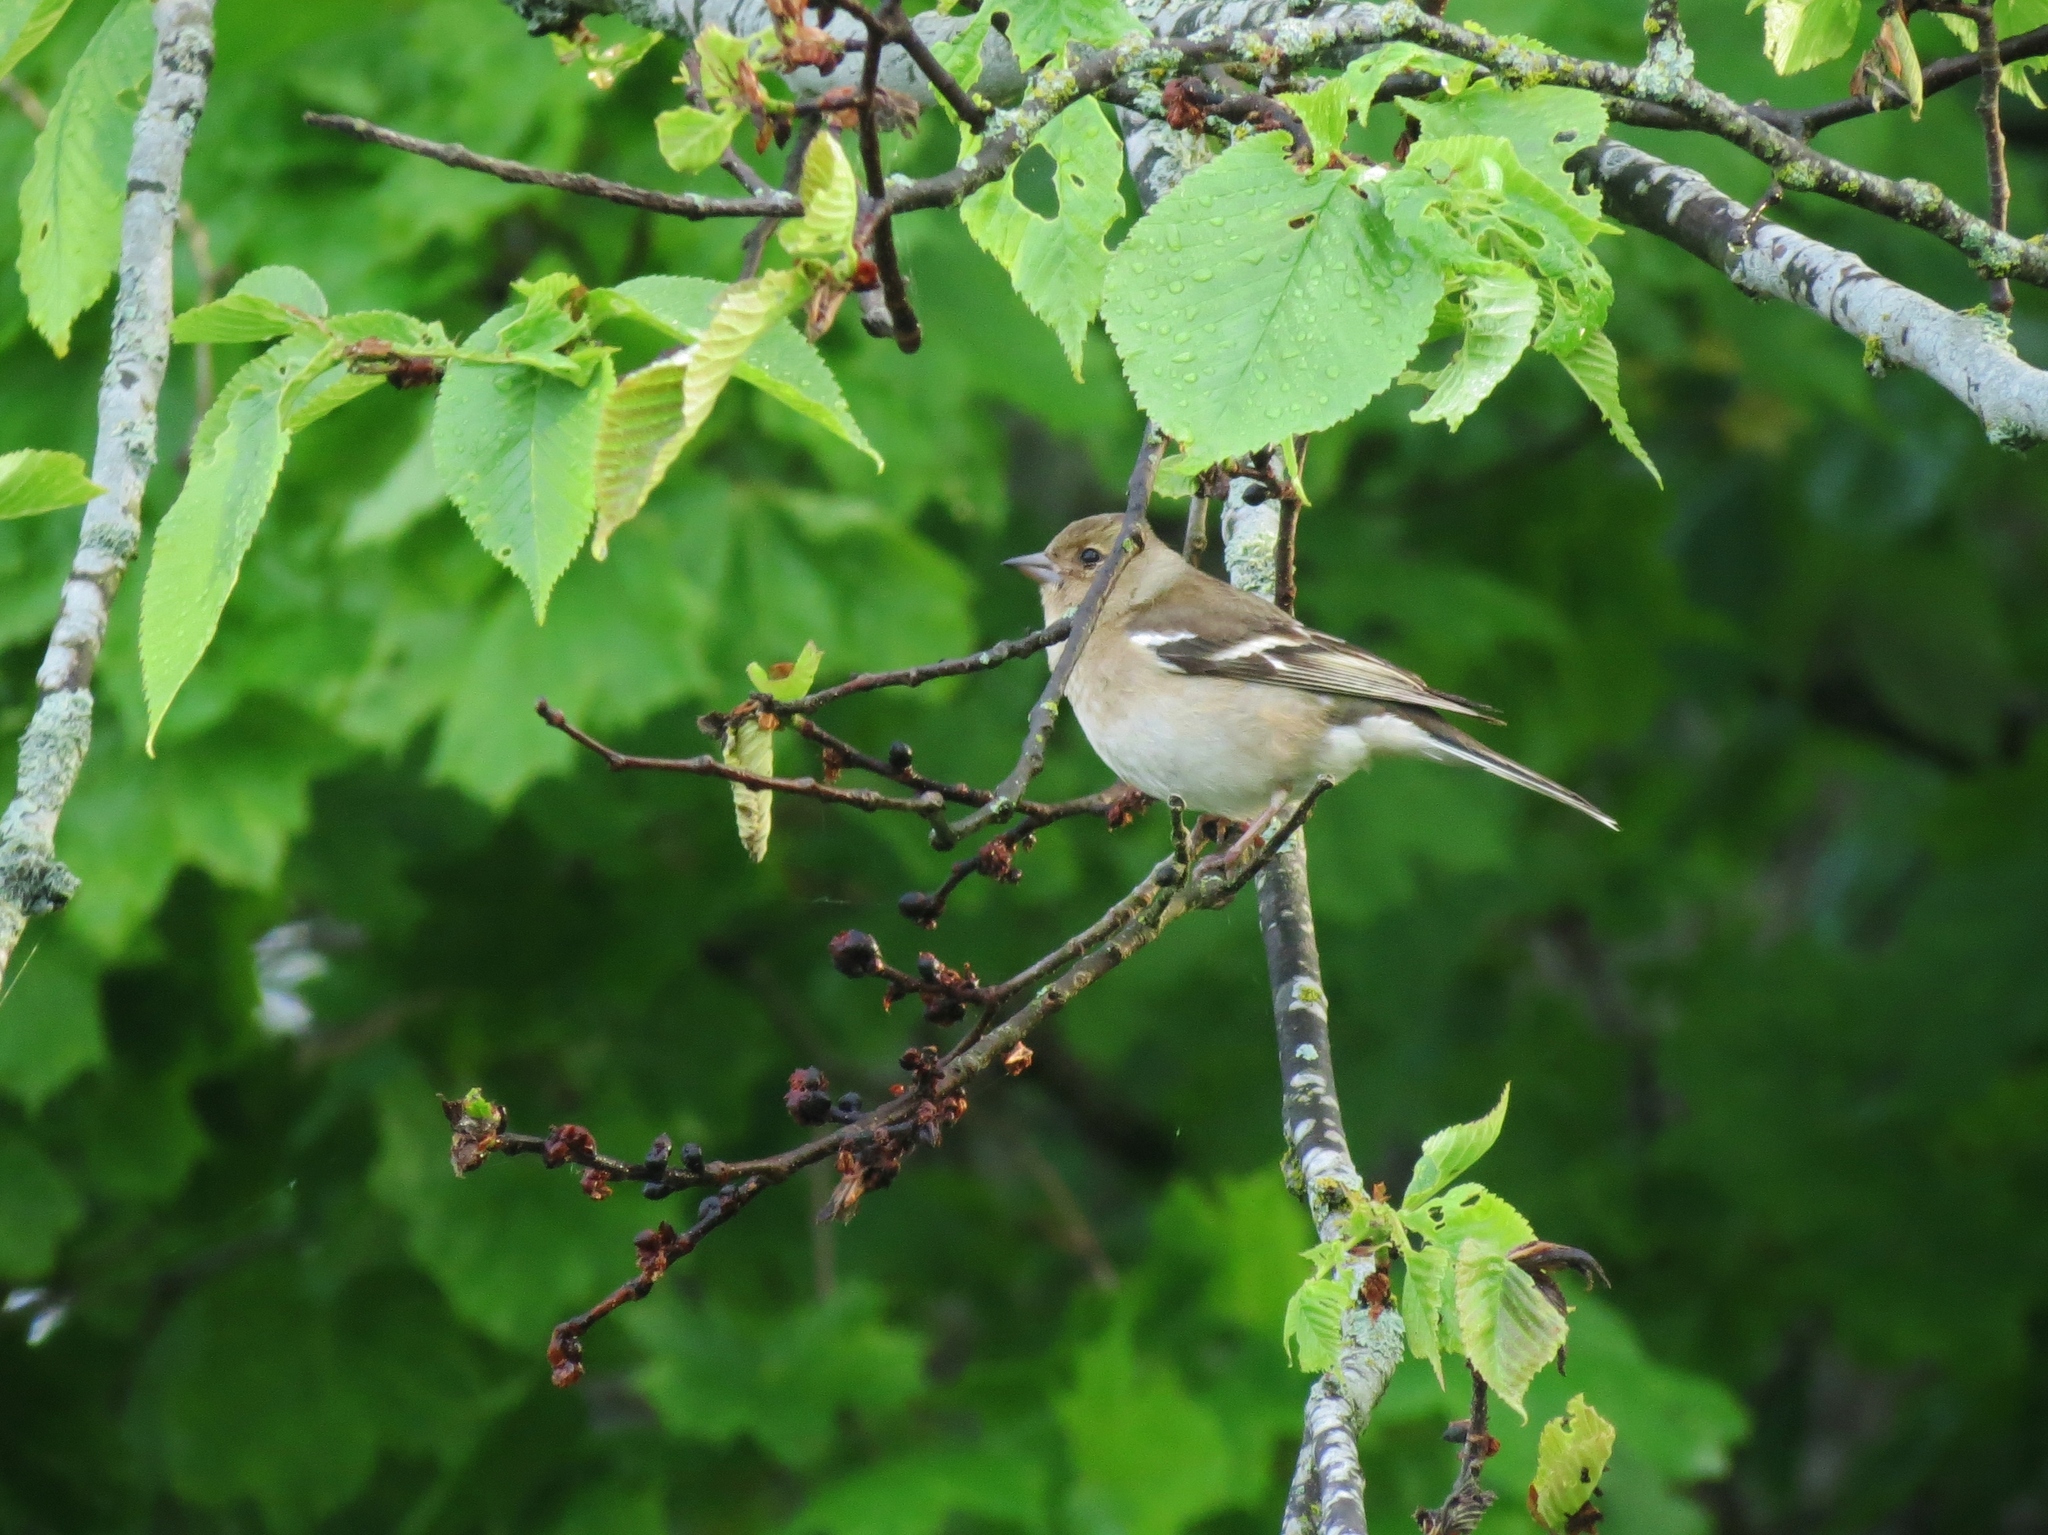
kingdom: Animalia
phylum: Chordata
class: Aves
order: Passeriformes
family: Fringillidae
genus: Fringilla
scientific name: Fringilla coelebs
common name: Common chaffinch
